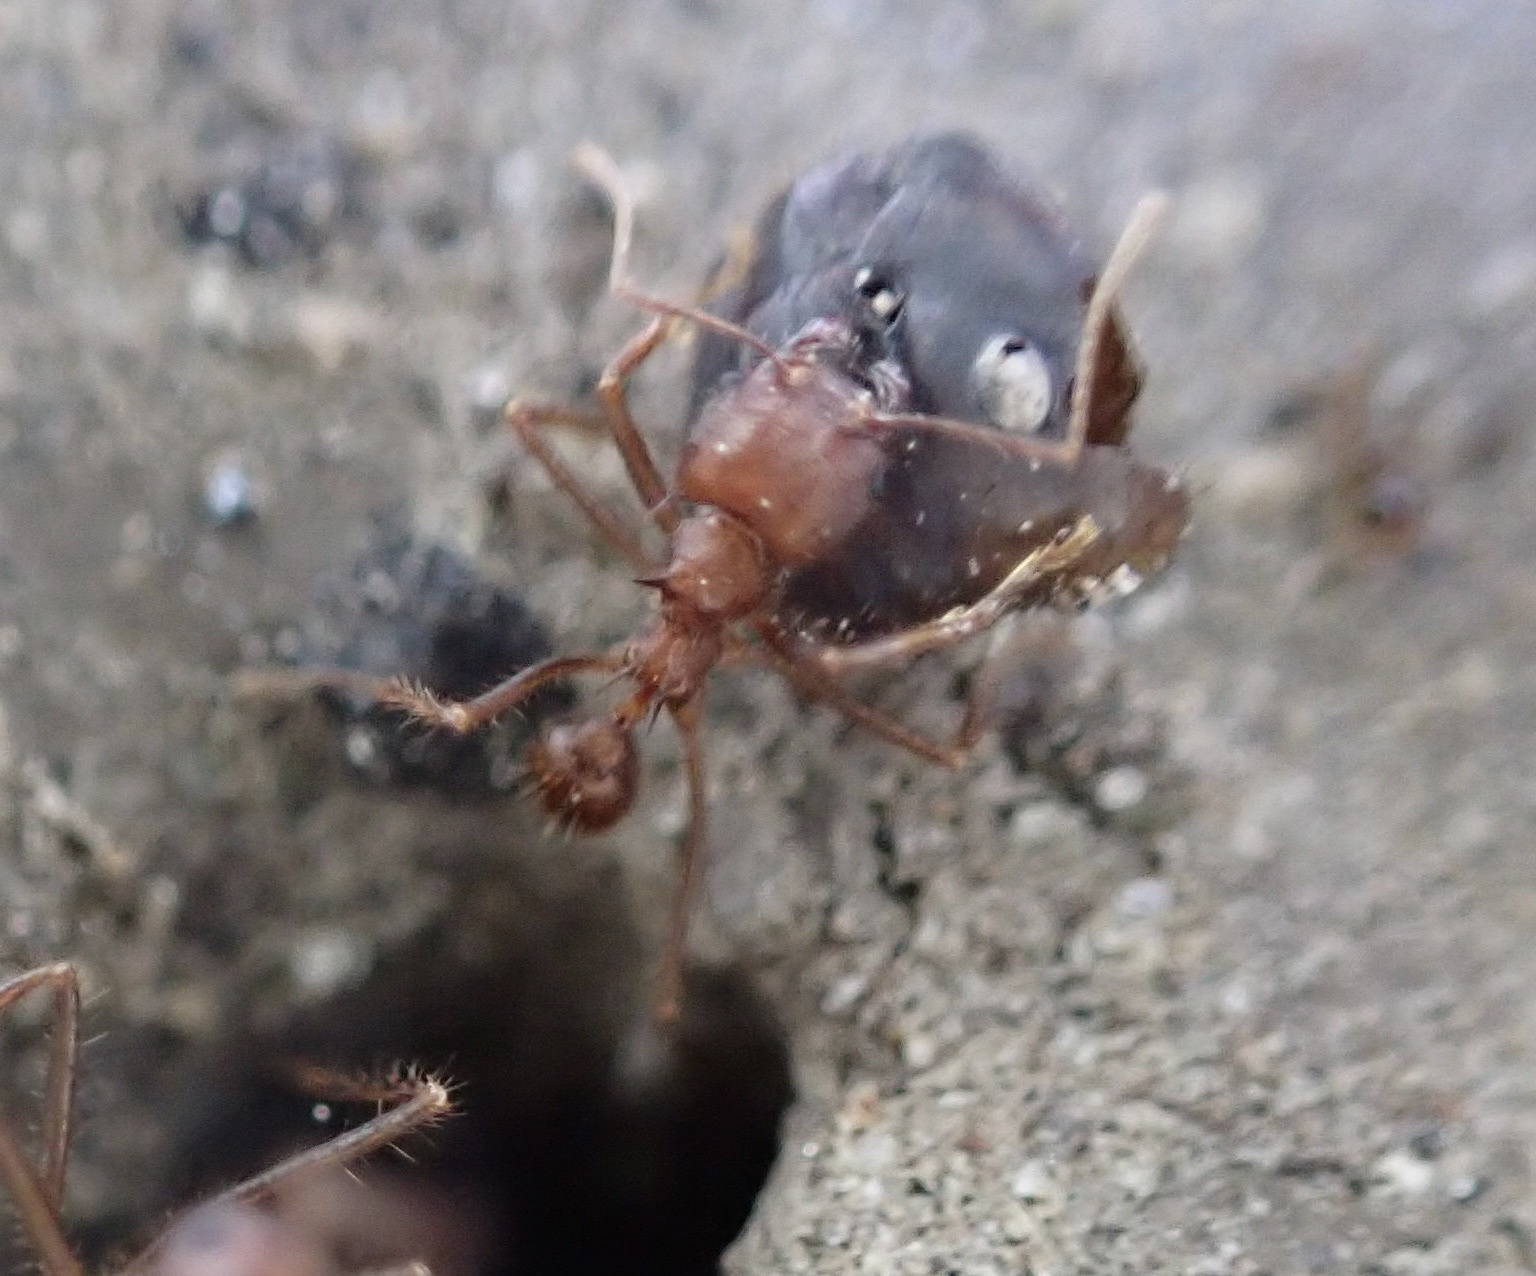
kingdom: Animalia
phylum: Arthropoda
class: Insecta
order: Hymenoptera
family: Formicidae
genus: Atta
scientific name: Atta mexicana
